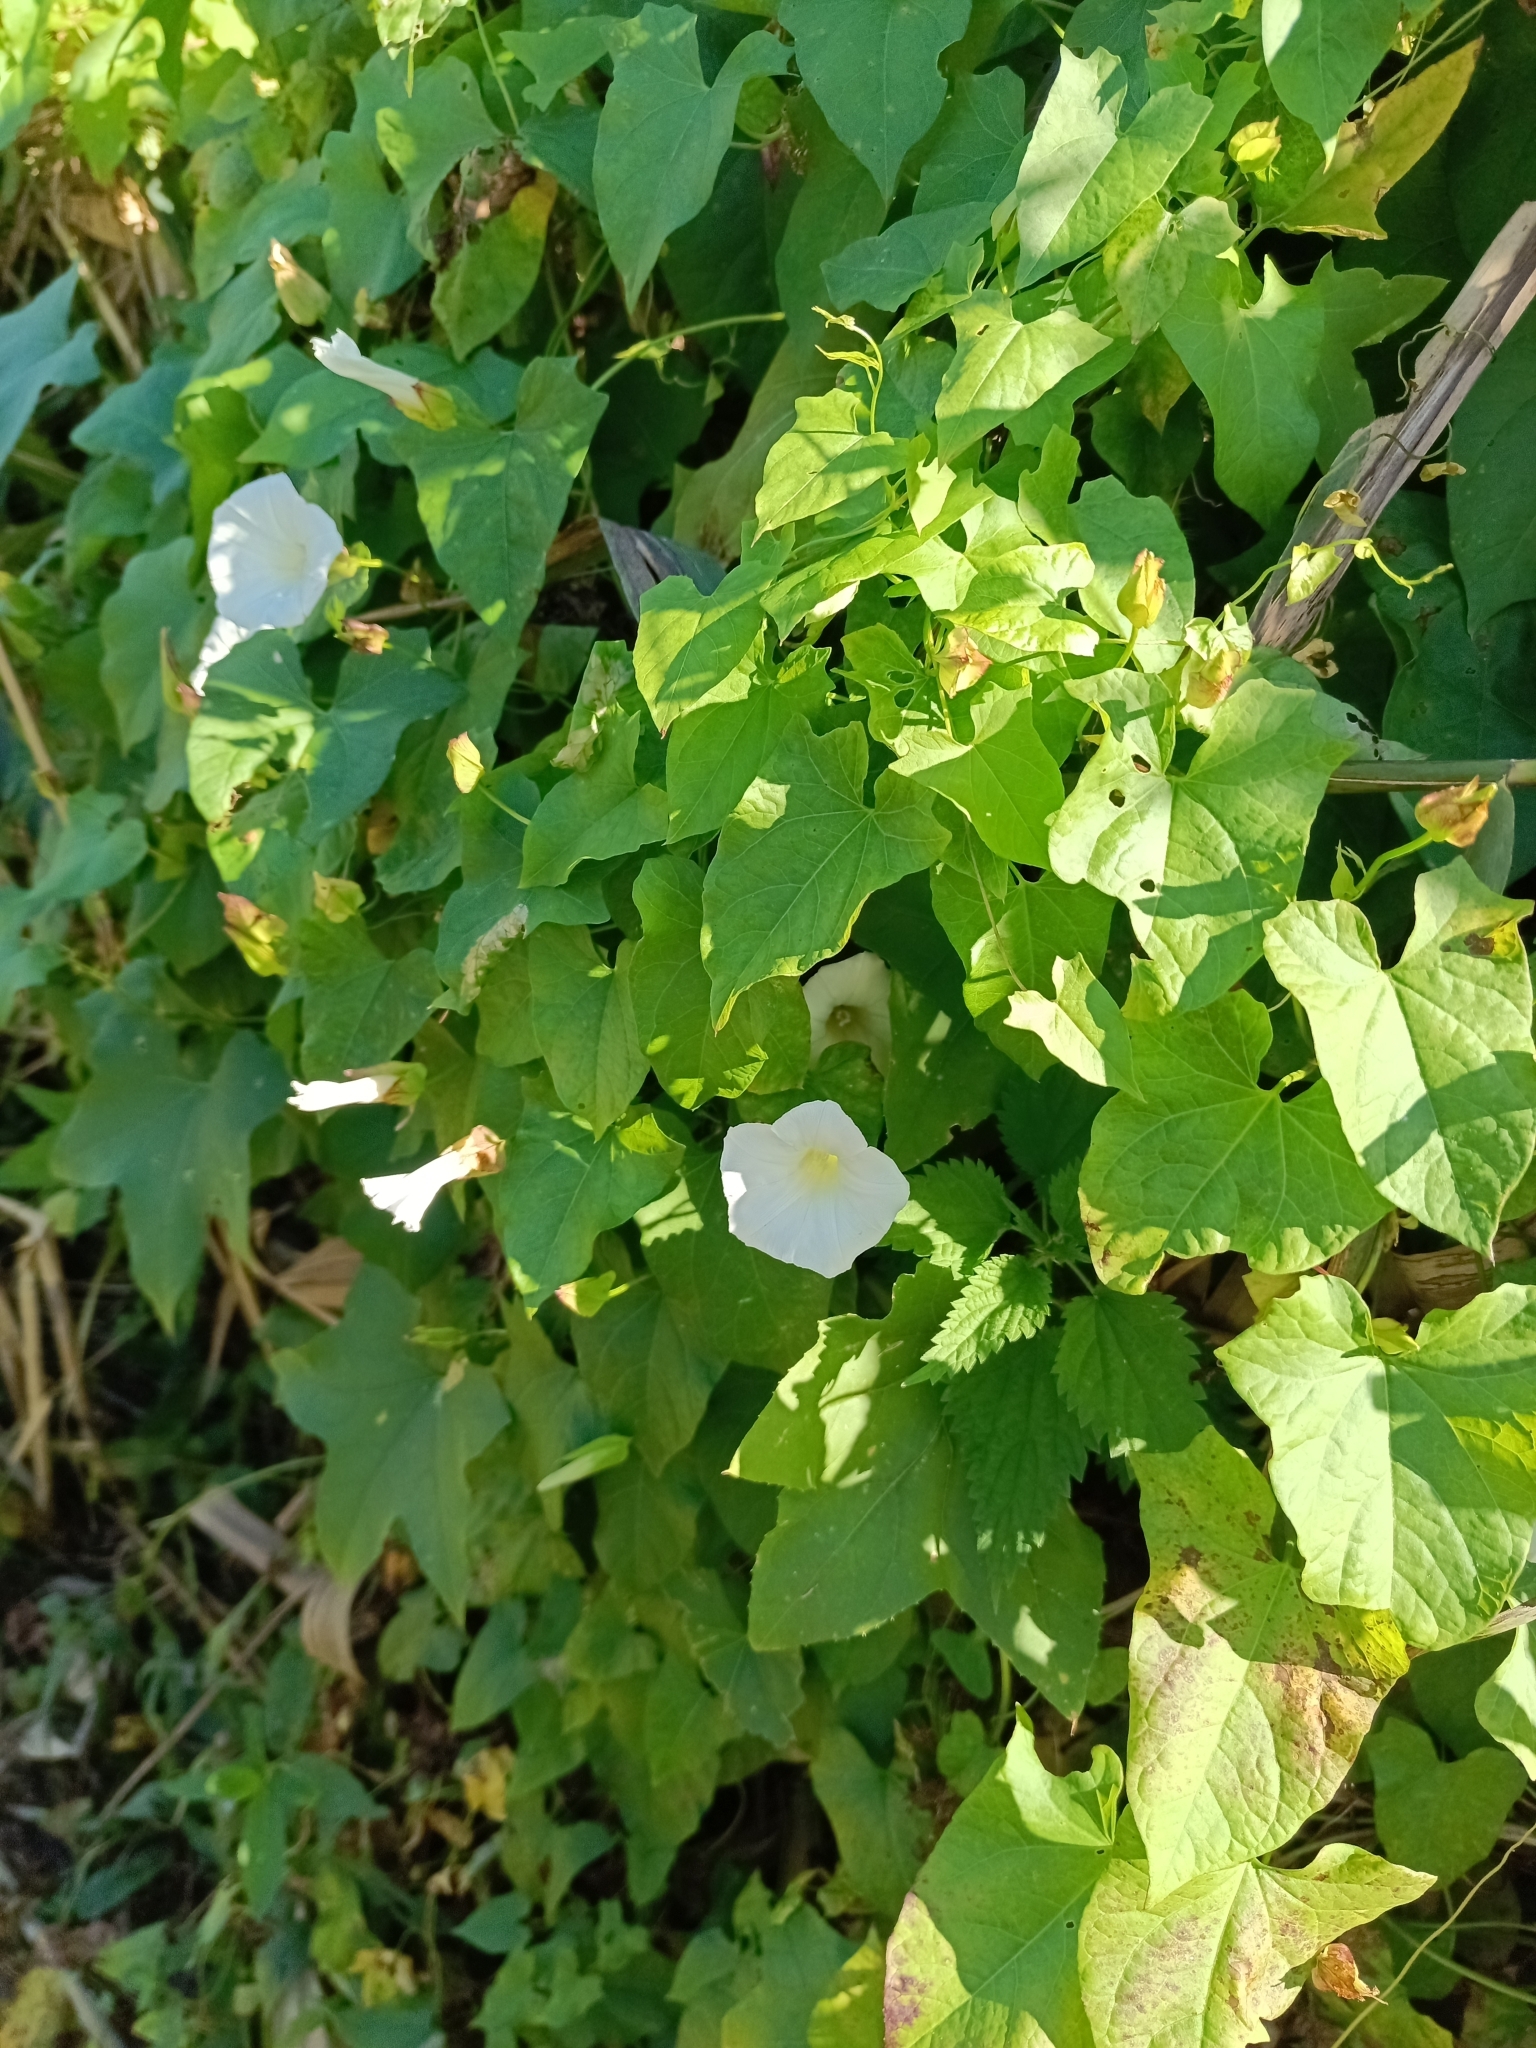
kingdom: Plantae
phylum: Tracheophyta
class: Magnoliopsida
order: Solanales
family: Convolvulaceae
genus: Calystegia
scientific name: Calystegia sepium
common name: Hedge bindweed
